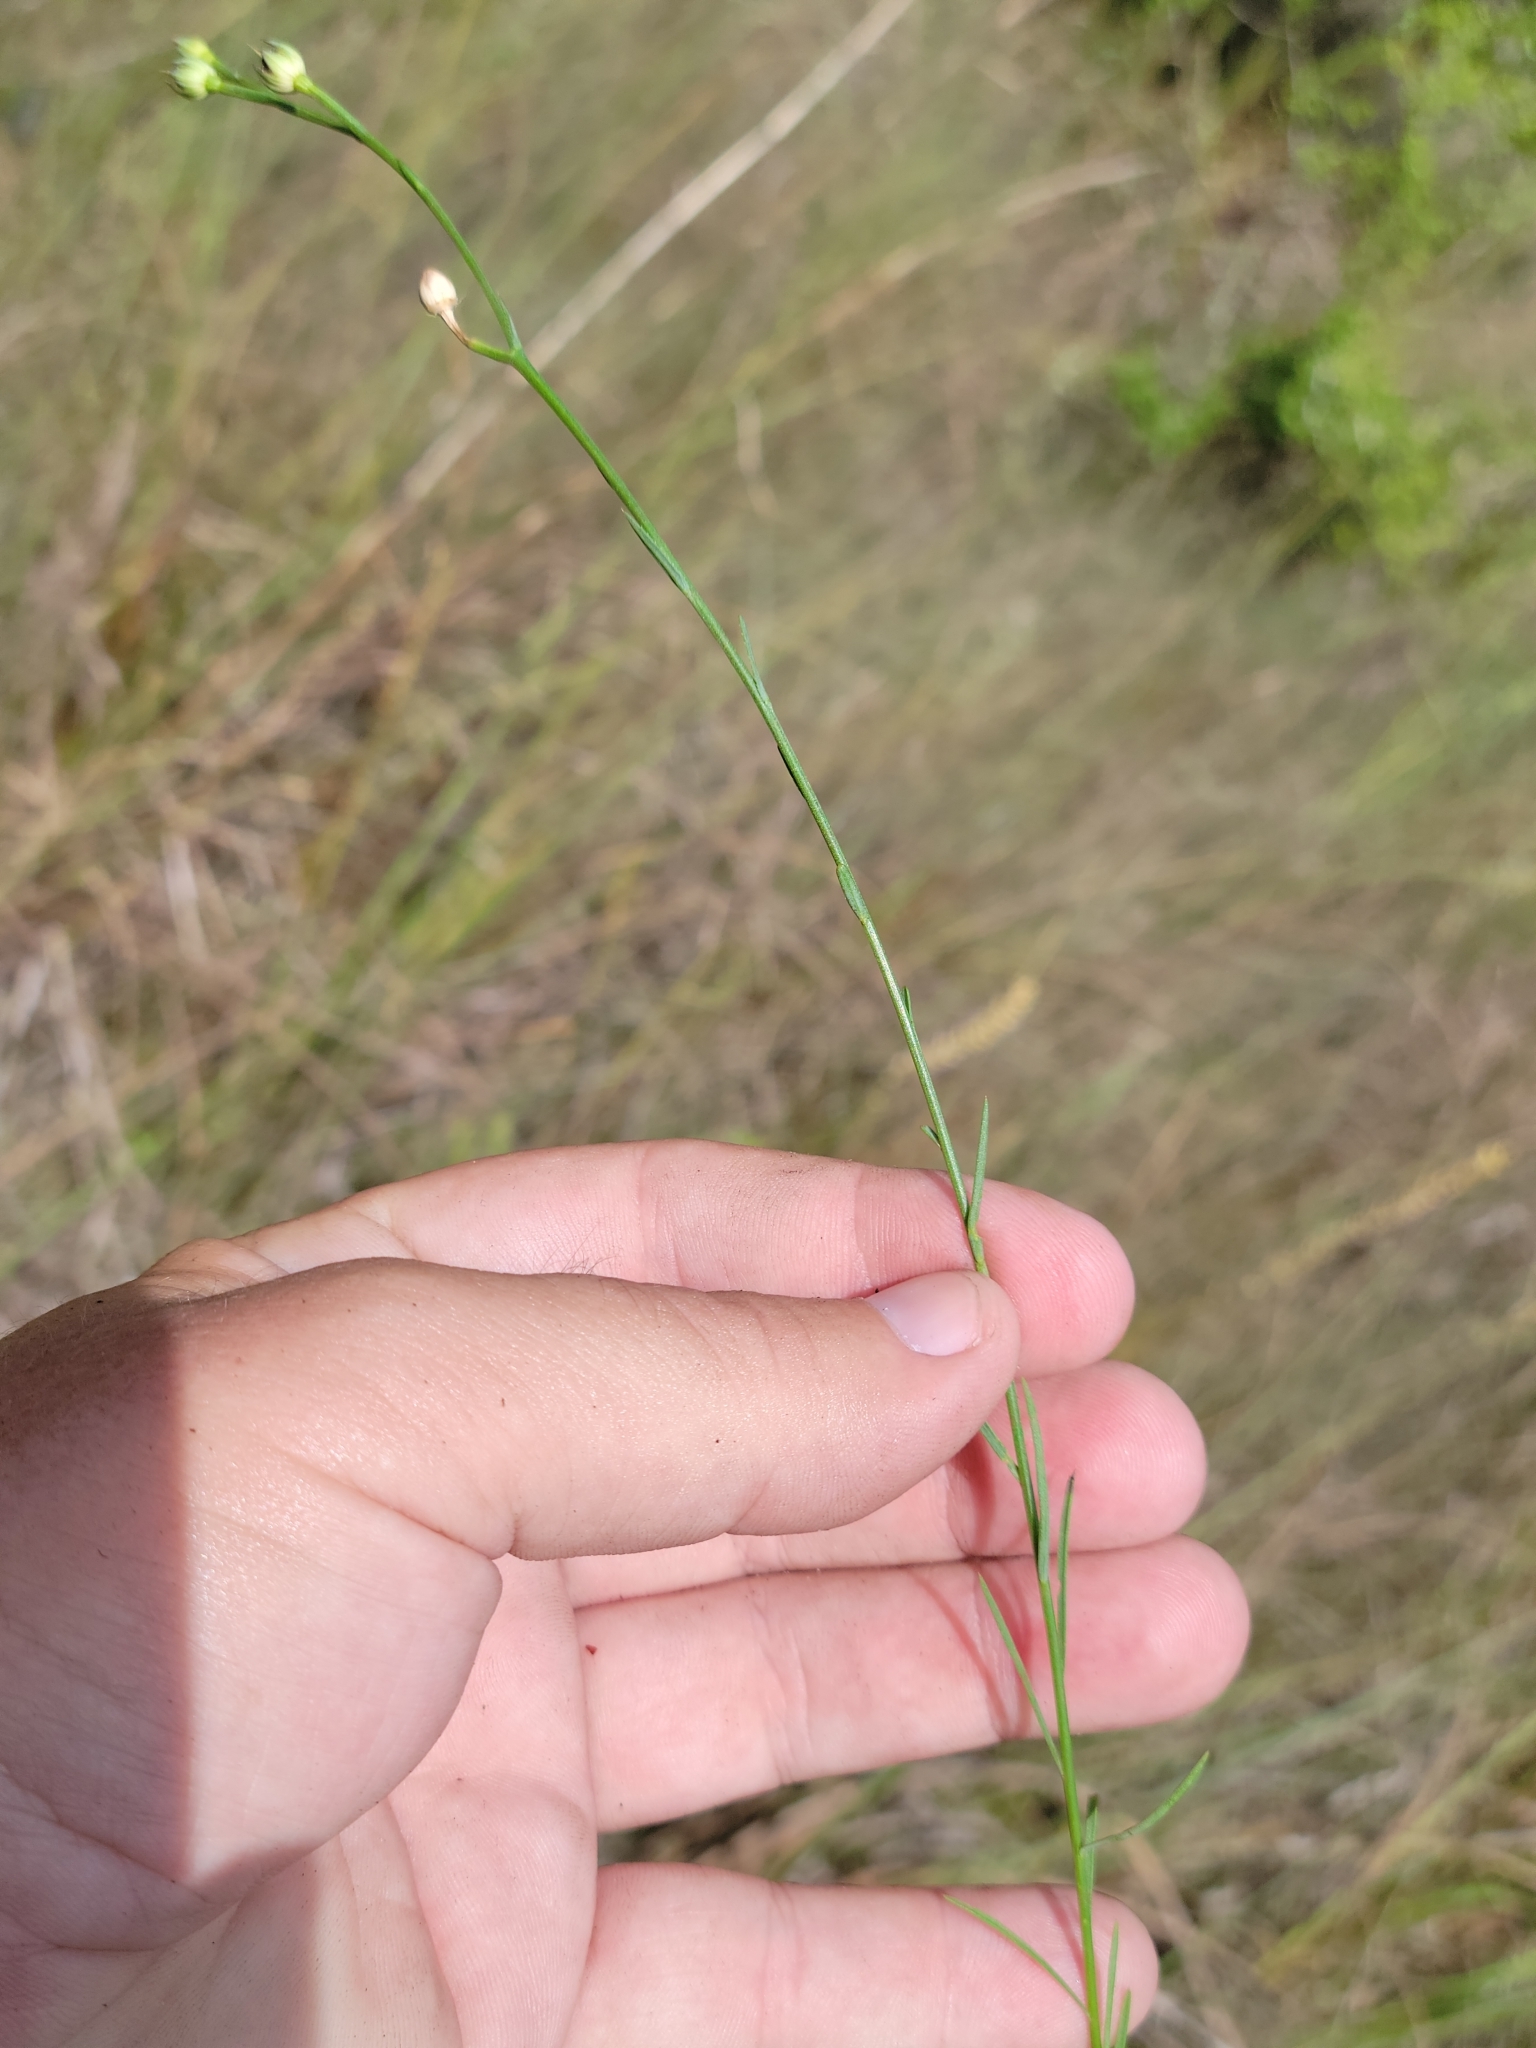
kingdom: Plantae
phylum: Tracheophyta
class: Magnoliopsida
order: Malpighiales
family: Linaceae
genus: Linum
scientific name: Linum smallii
